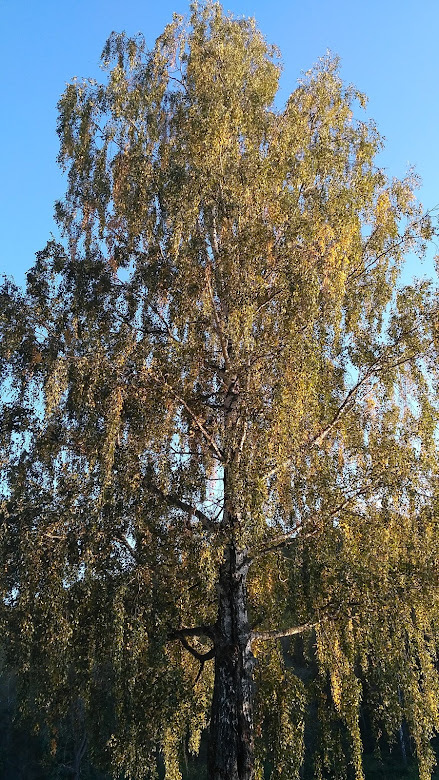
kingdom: Plantae
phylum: Tracheophyta
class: Magnoliopsida
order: Fagales
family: Betulaceae
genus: Betula
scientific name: Betula pendula
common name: Silver birch
